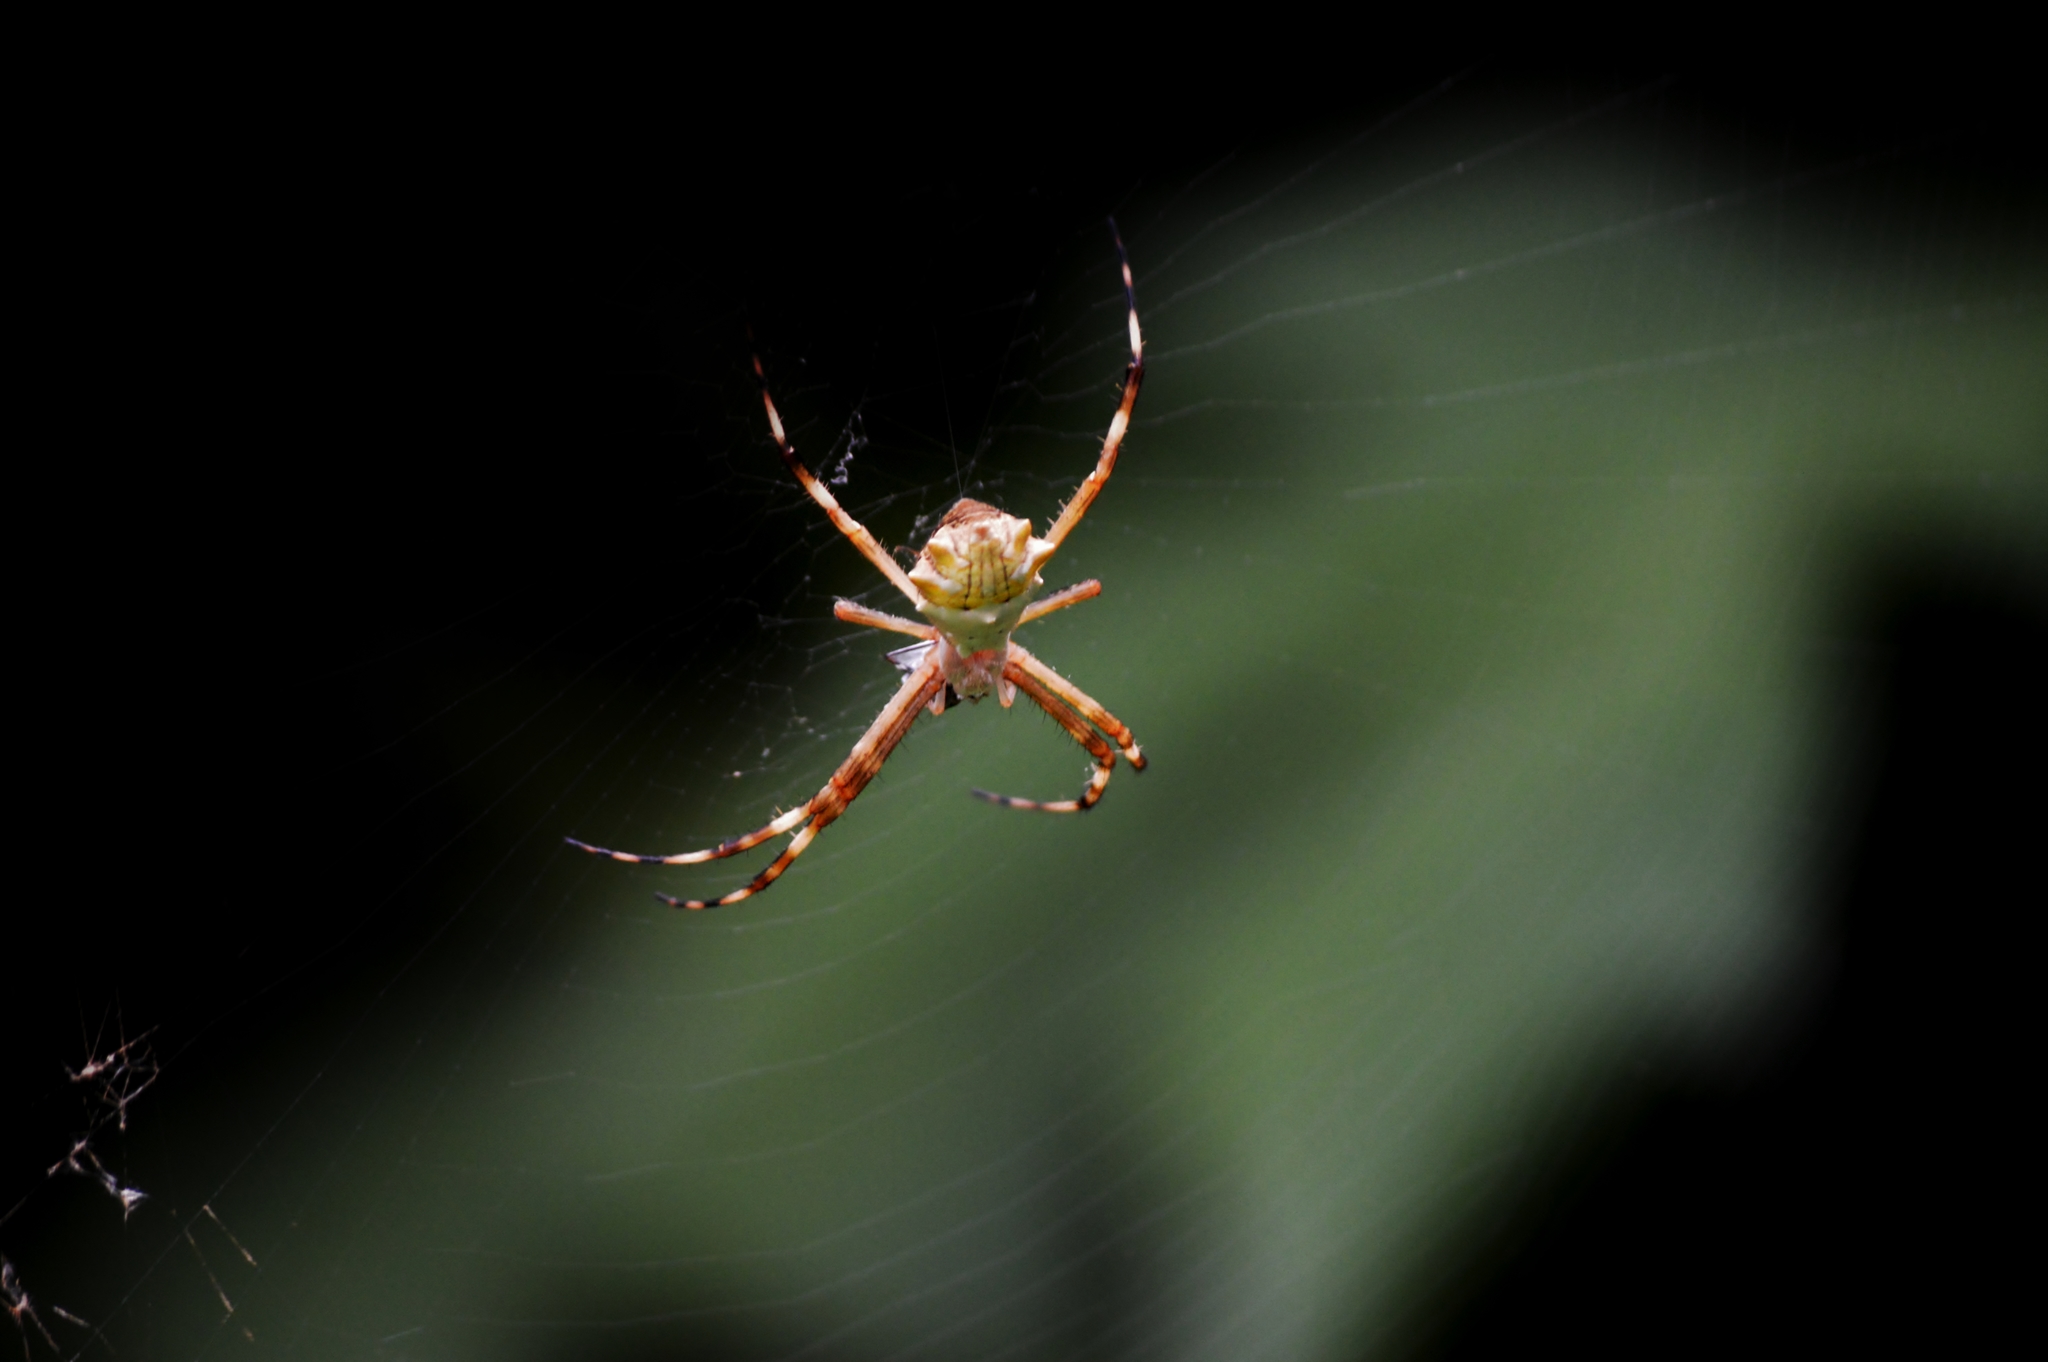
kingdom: Animalia
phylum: Arthropoda
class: Arachnida
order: Araneae
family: Araneidae
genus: Argiope
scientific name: Argiope argentata
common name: Orb weavers
